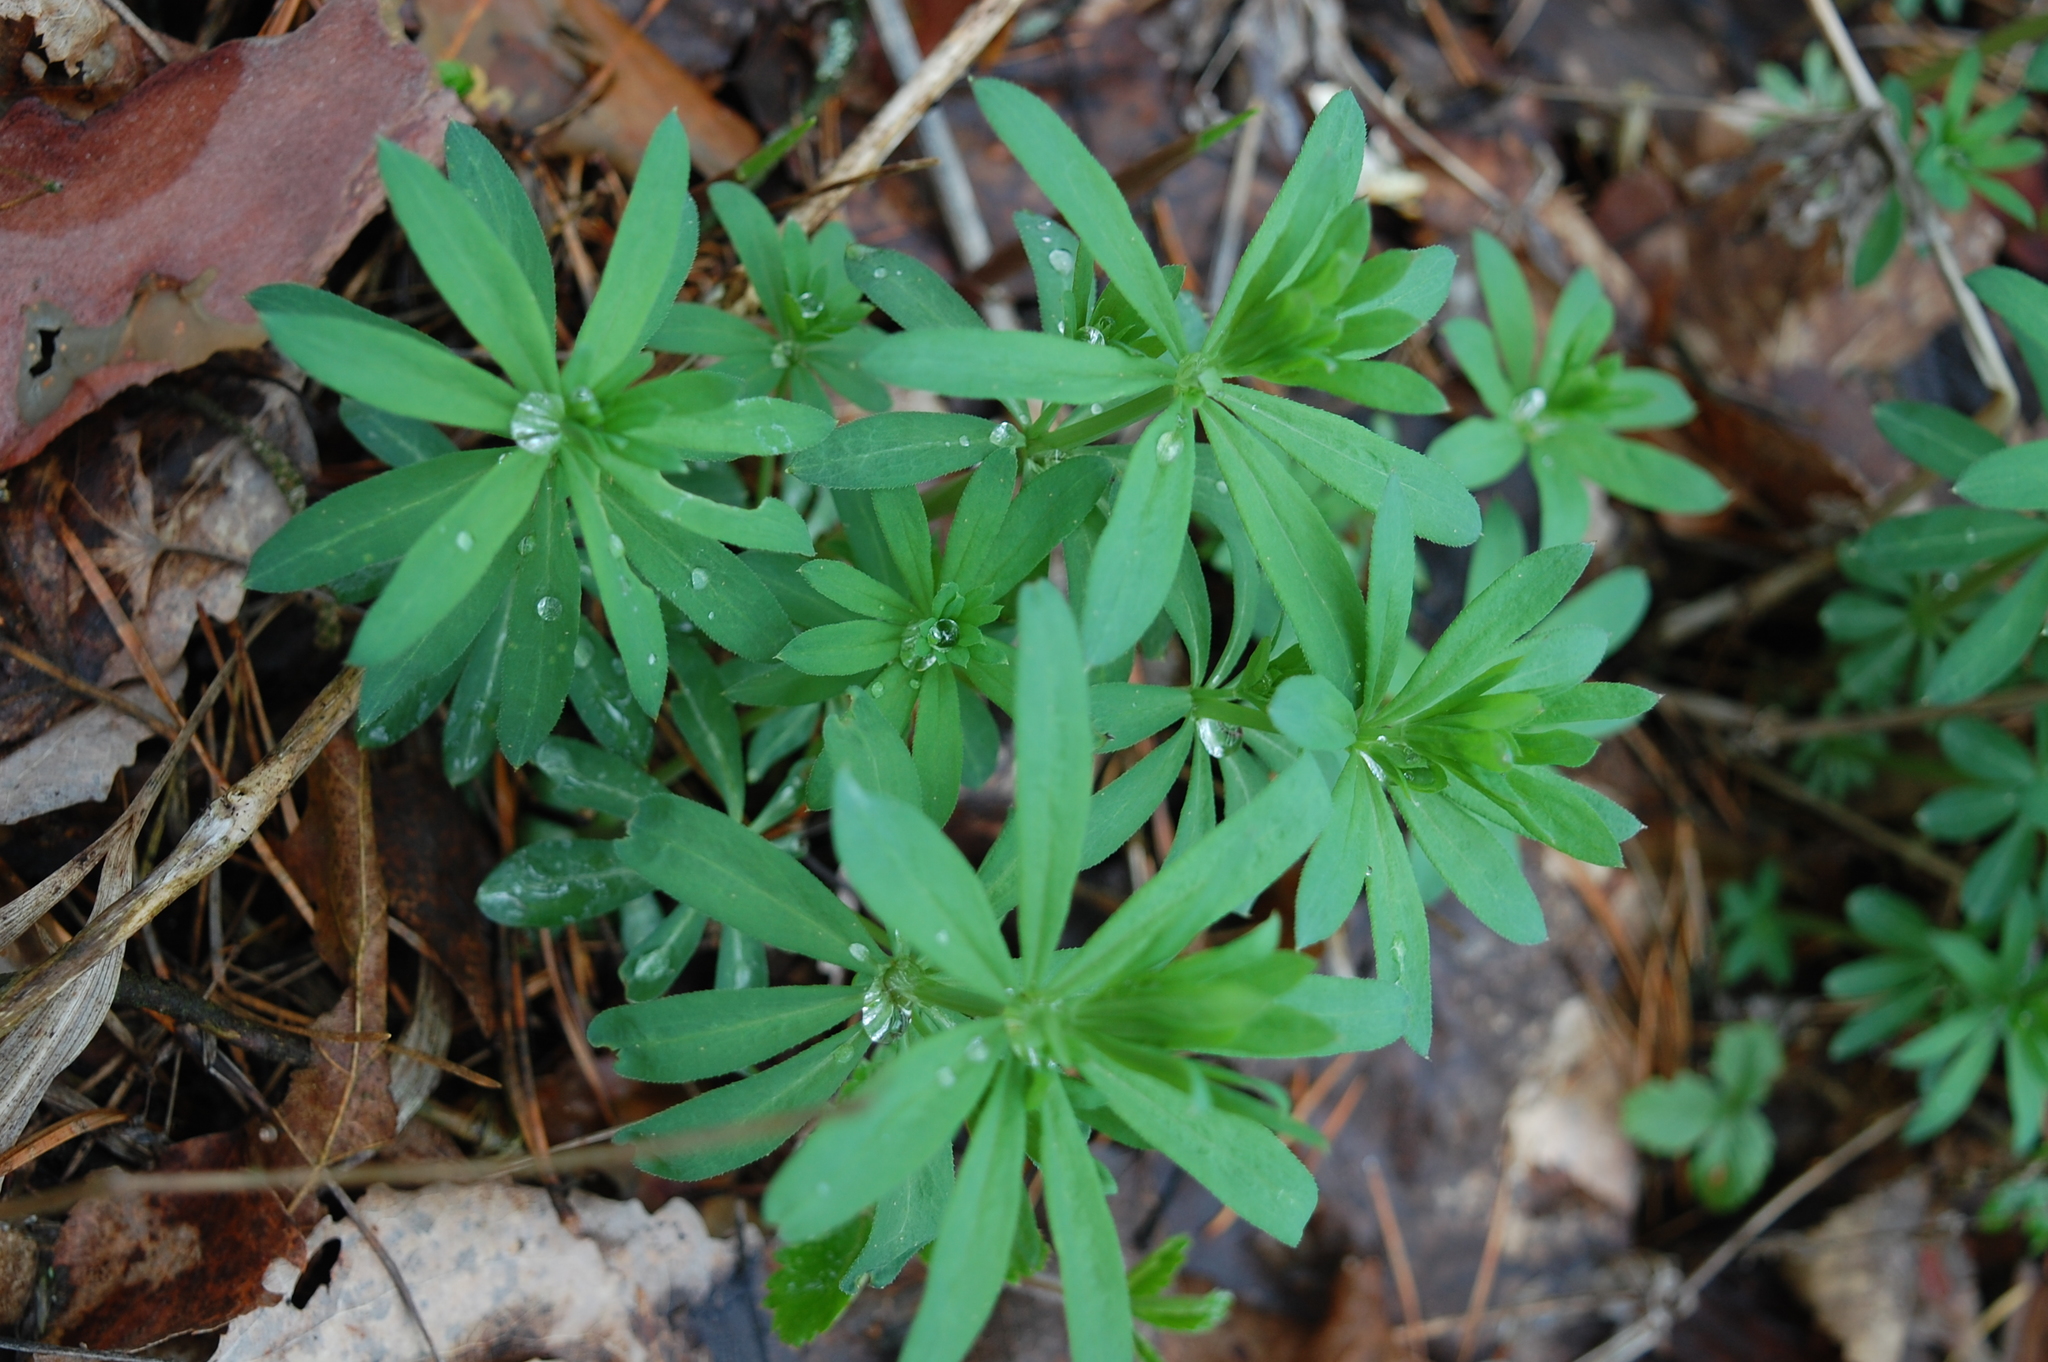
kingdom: Plantae
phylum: Tracheophyta
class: Magnoliopsida
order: Gentianales
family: Rubiaceae
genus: Galium
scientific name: Galium intermedium
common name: Bedstraw
